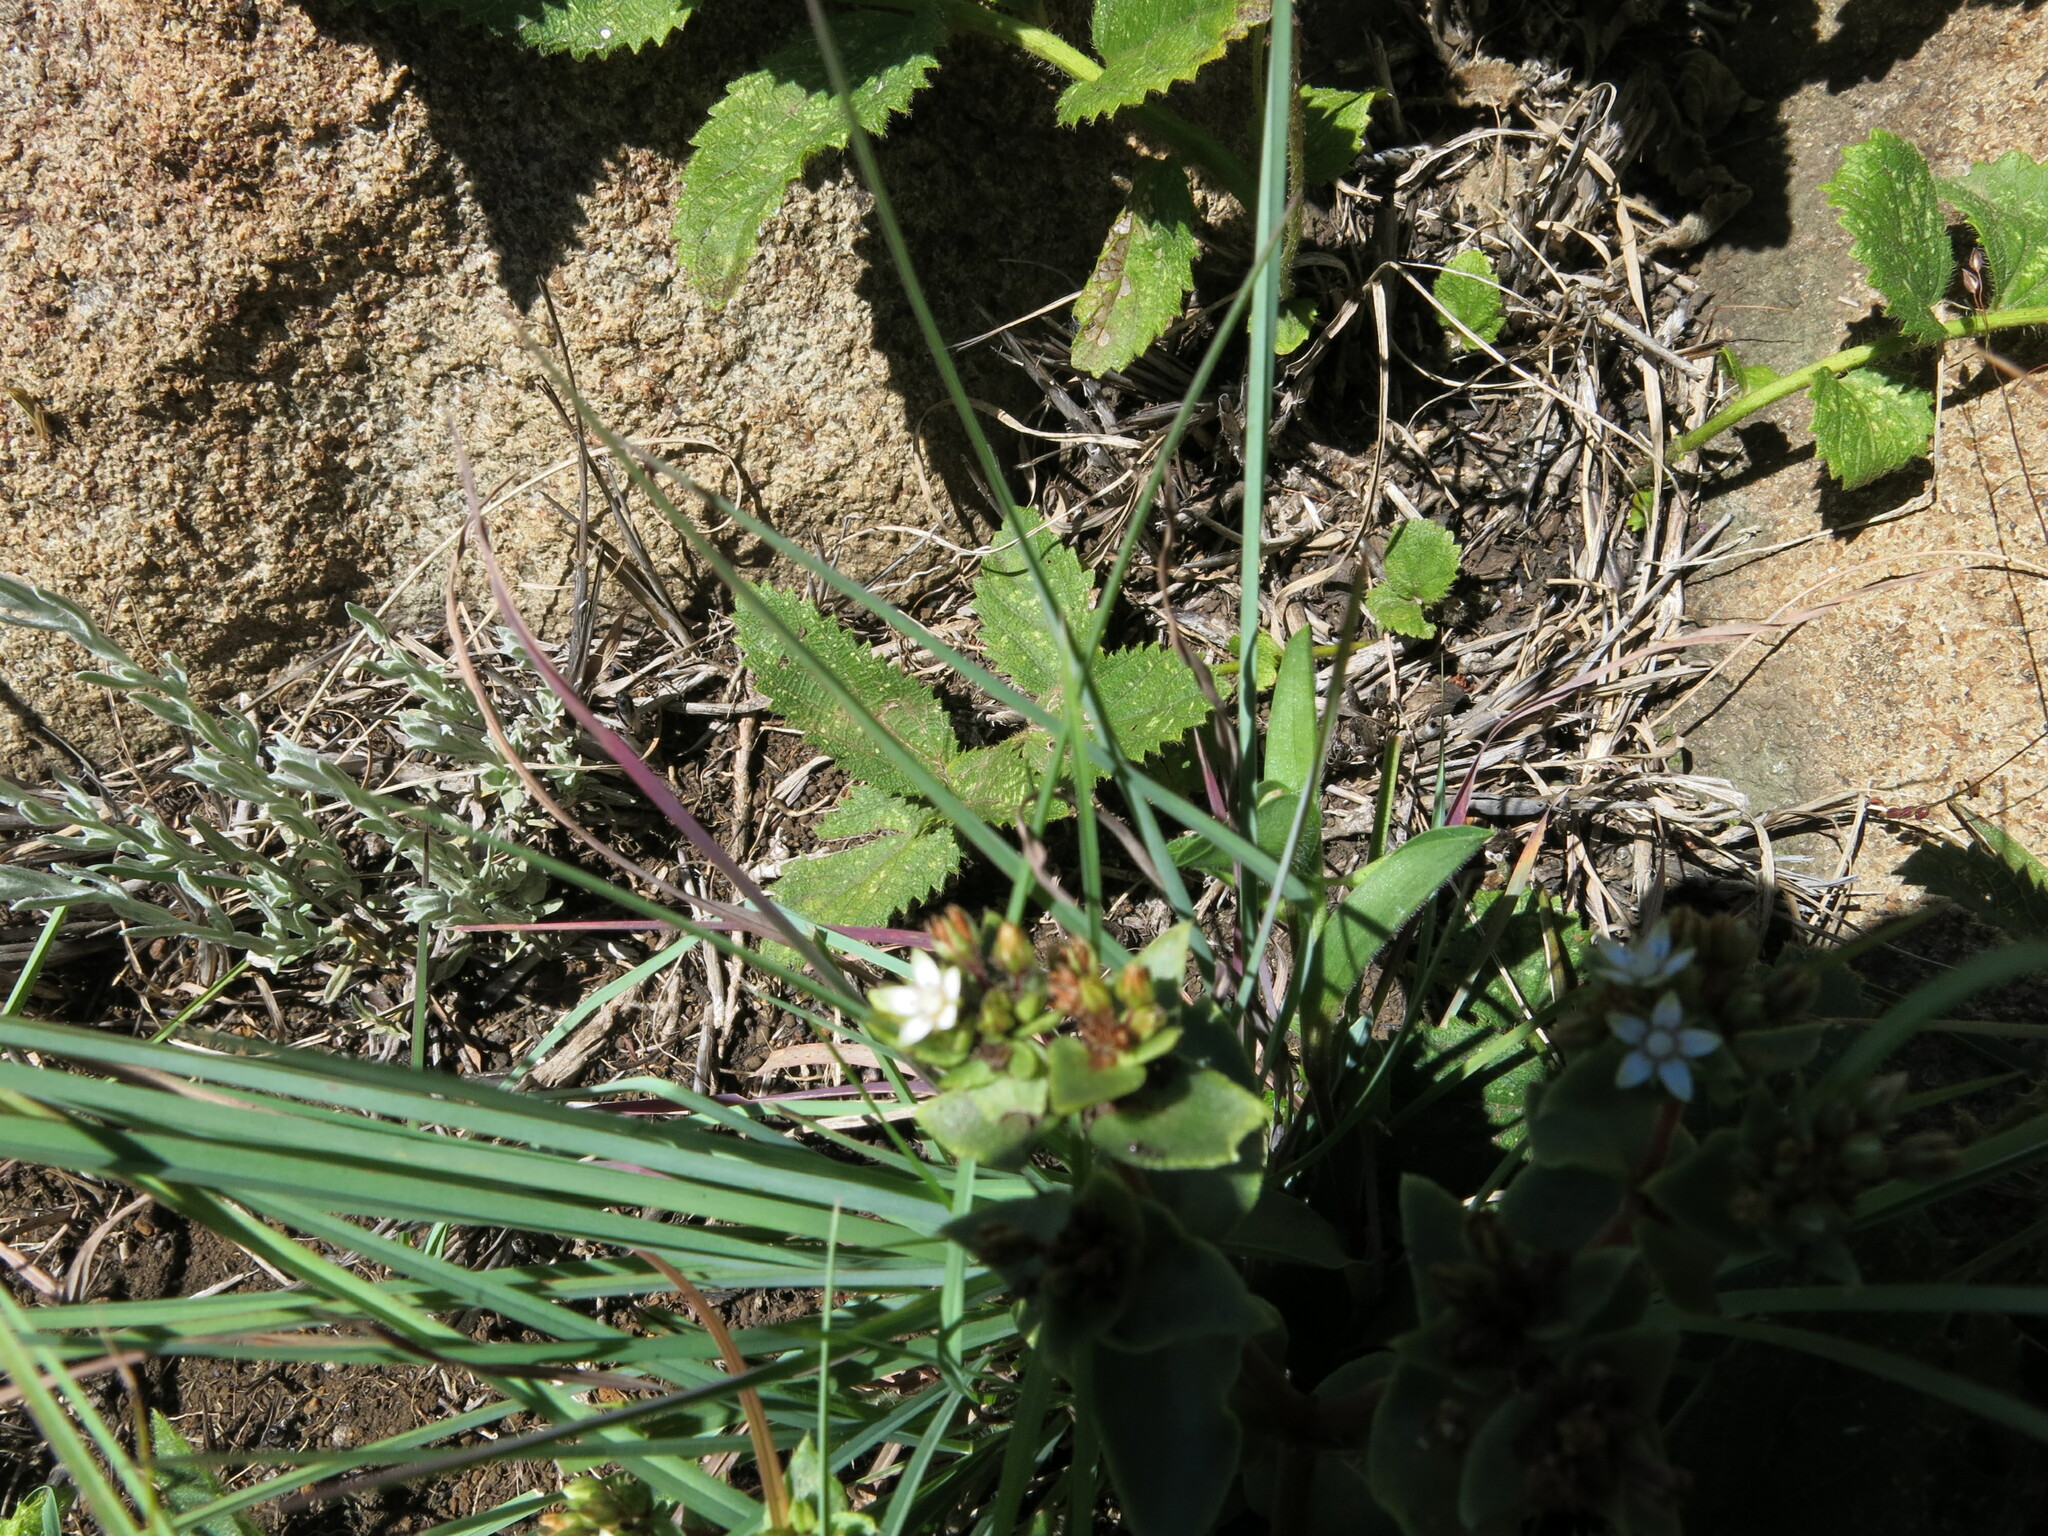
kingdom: Plantae
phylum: Tracheophyta
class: Magnoliopsida
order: Saxifragales
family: Crassulaceae
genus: Crassula
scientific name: Crassula pellucida
